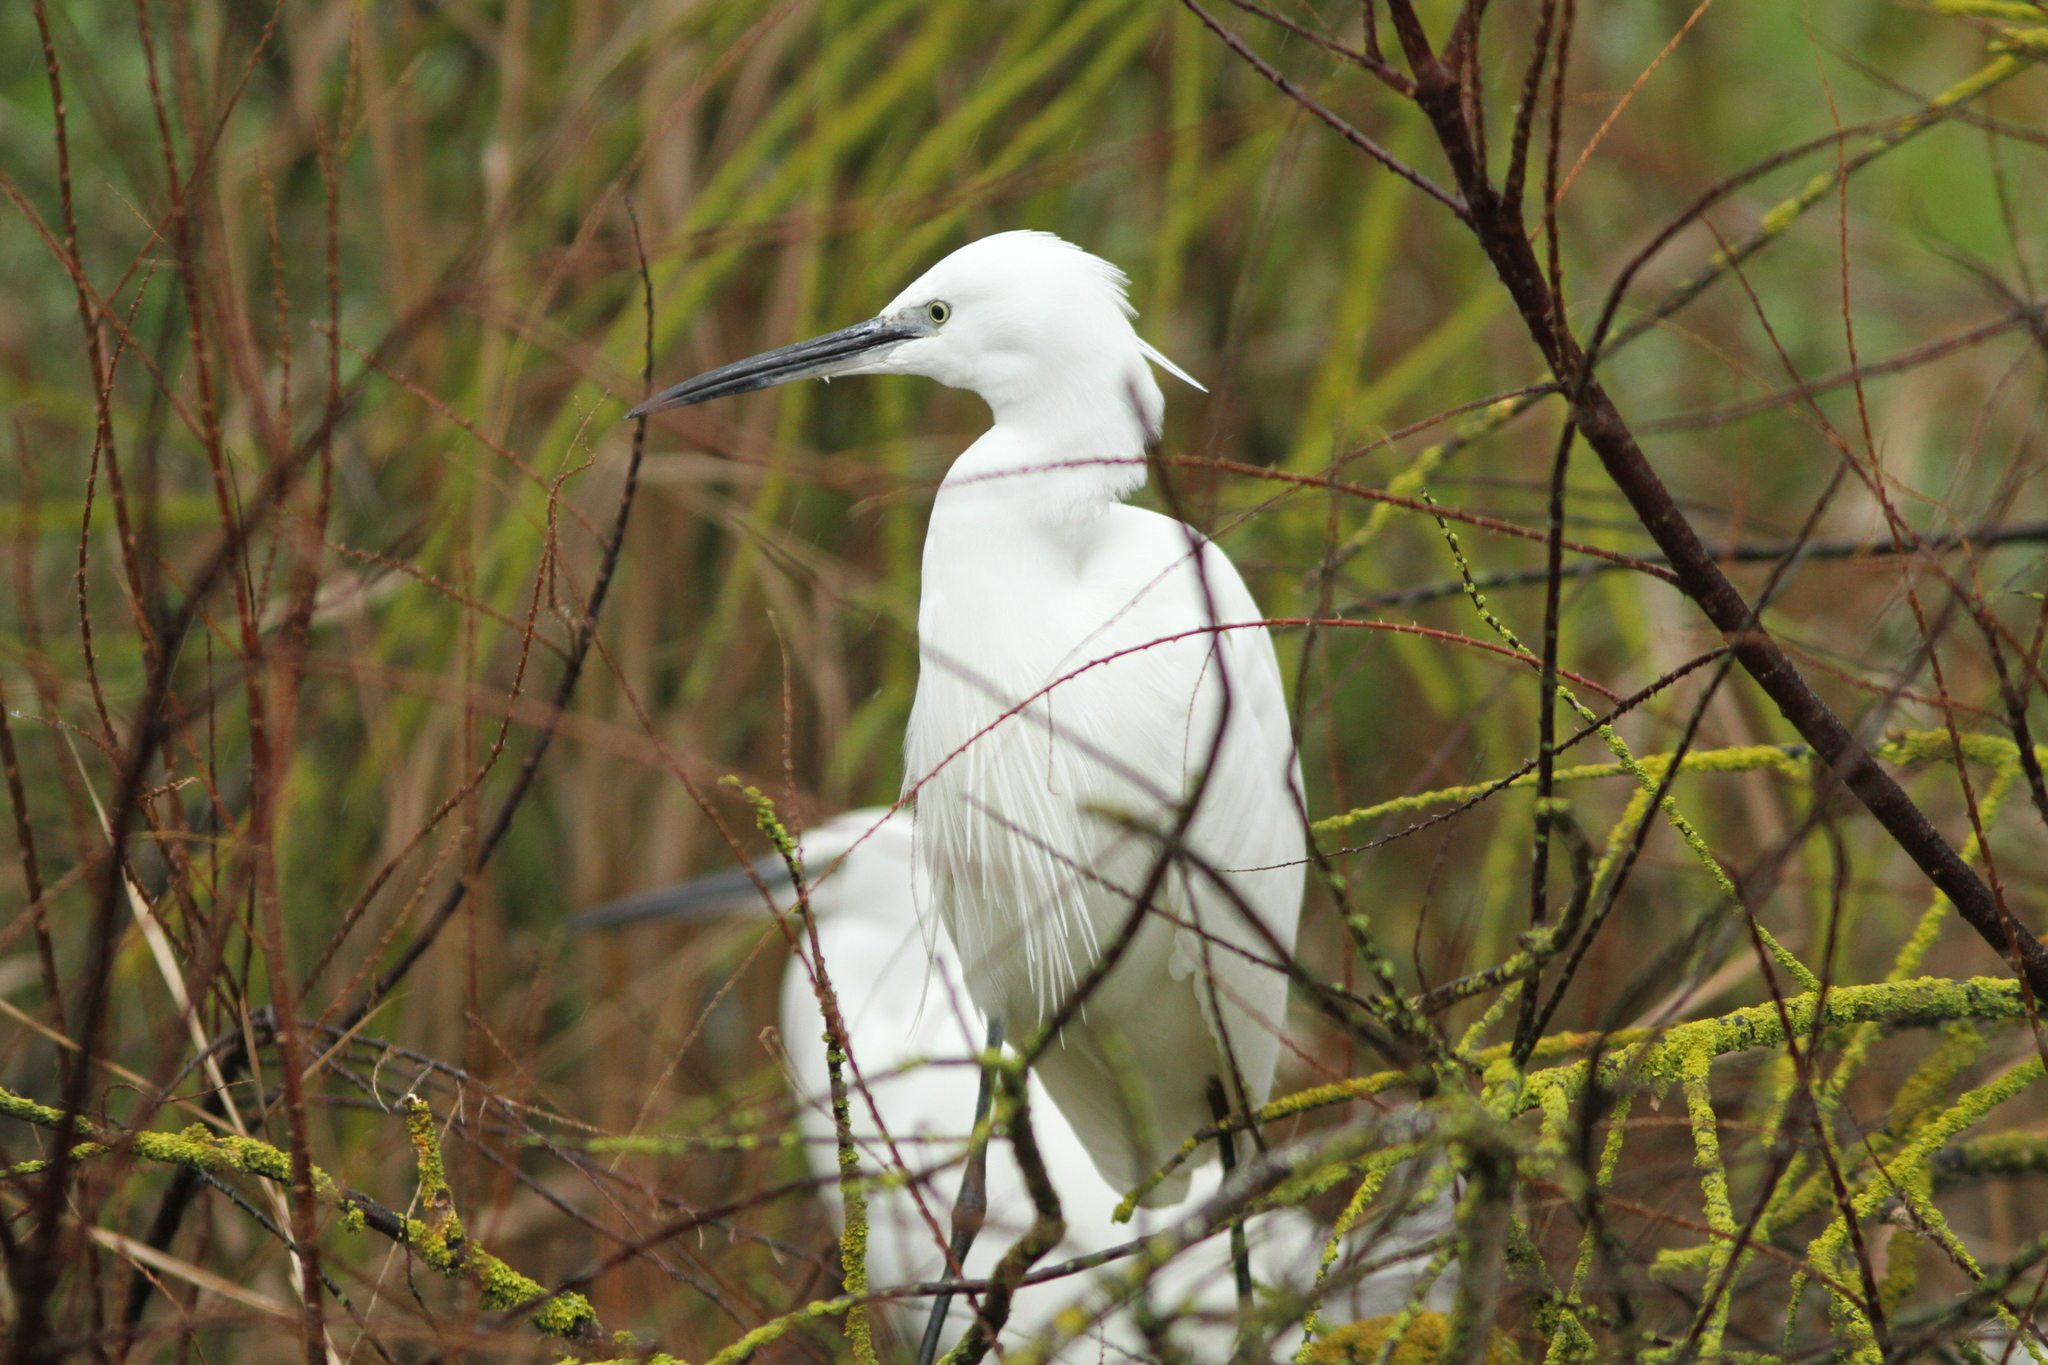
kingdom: Animalia
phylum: Chordata
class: Aves
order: Pelecaniformes
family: Ardeidae
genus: Egretta
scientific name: Egretta garzetta
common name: Little egret
